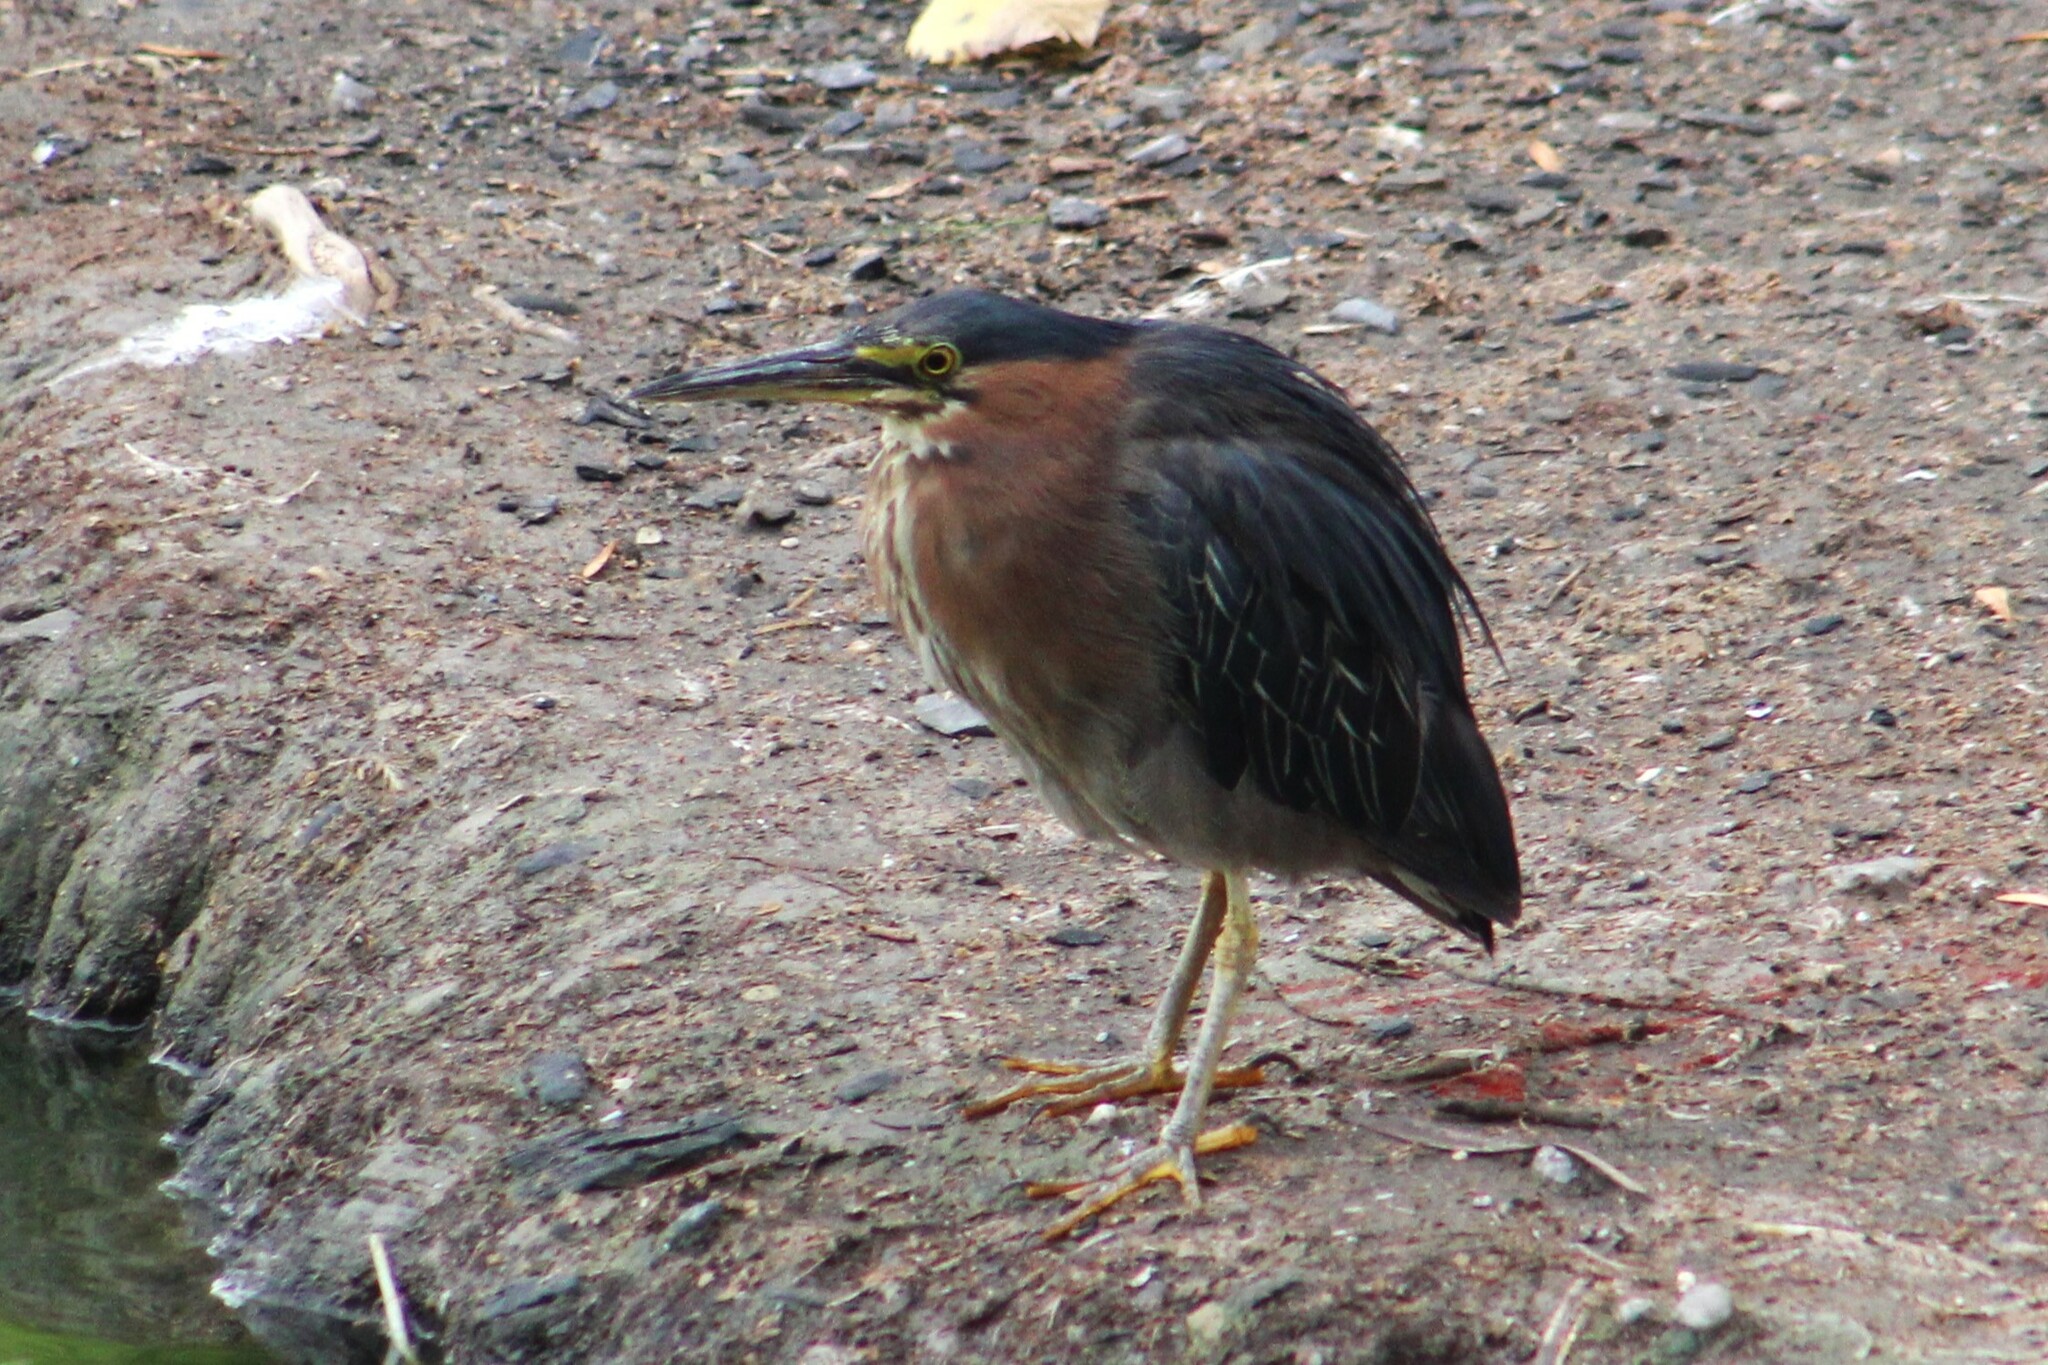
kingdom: Animalia
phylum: Chordata
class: Aves
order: Pelecaniformes
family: Ardeidae
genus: Butorides
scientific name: Butorides virescens
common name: Green heron
